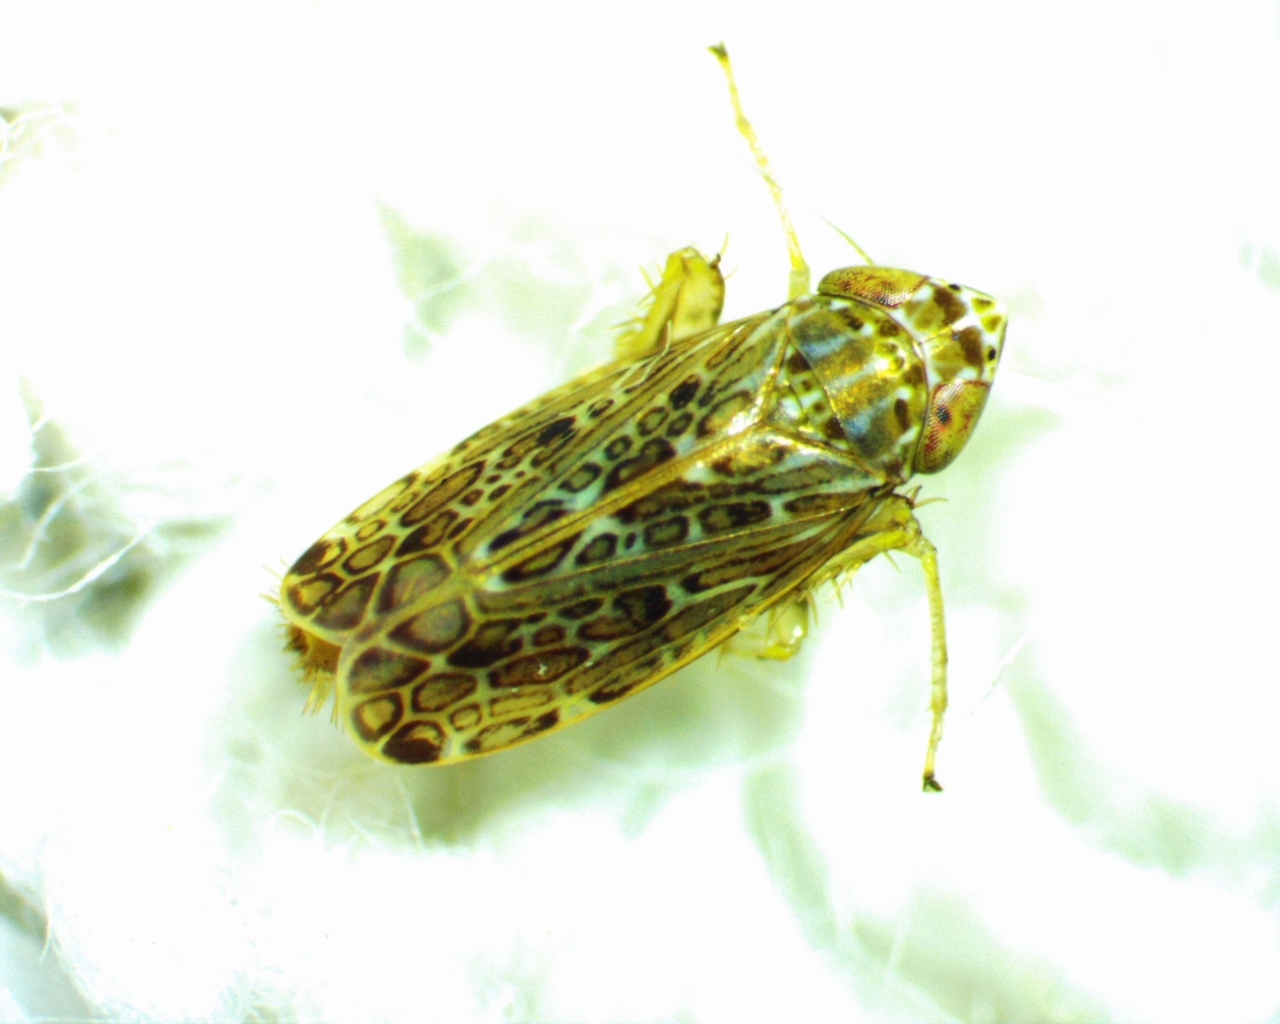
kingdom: Animalia
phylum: Arthropoda
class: Insecta
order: Hemiptera
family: Cicadellidae
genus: Polyamia
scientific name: Polyamia weedi
